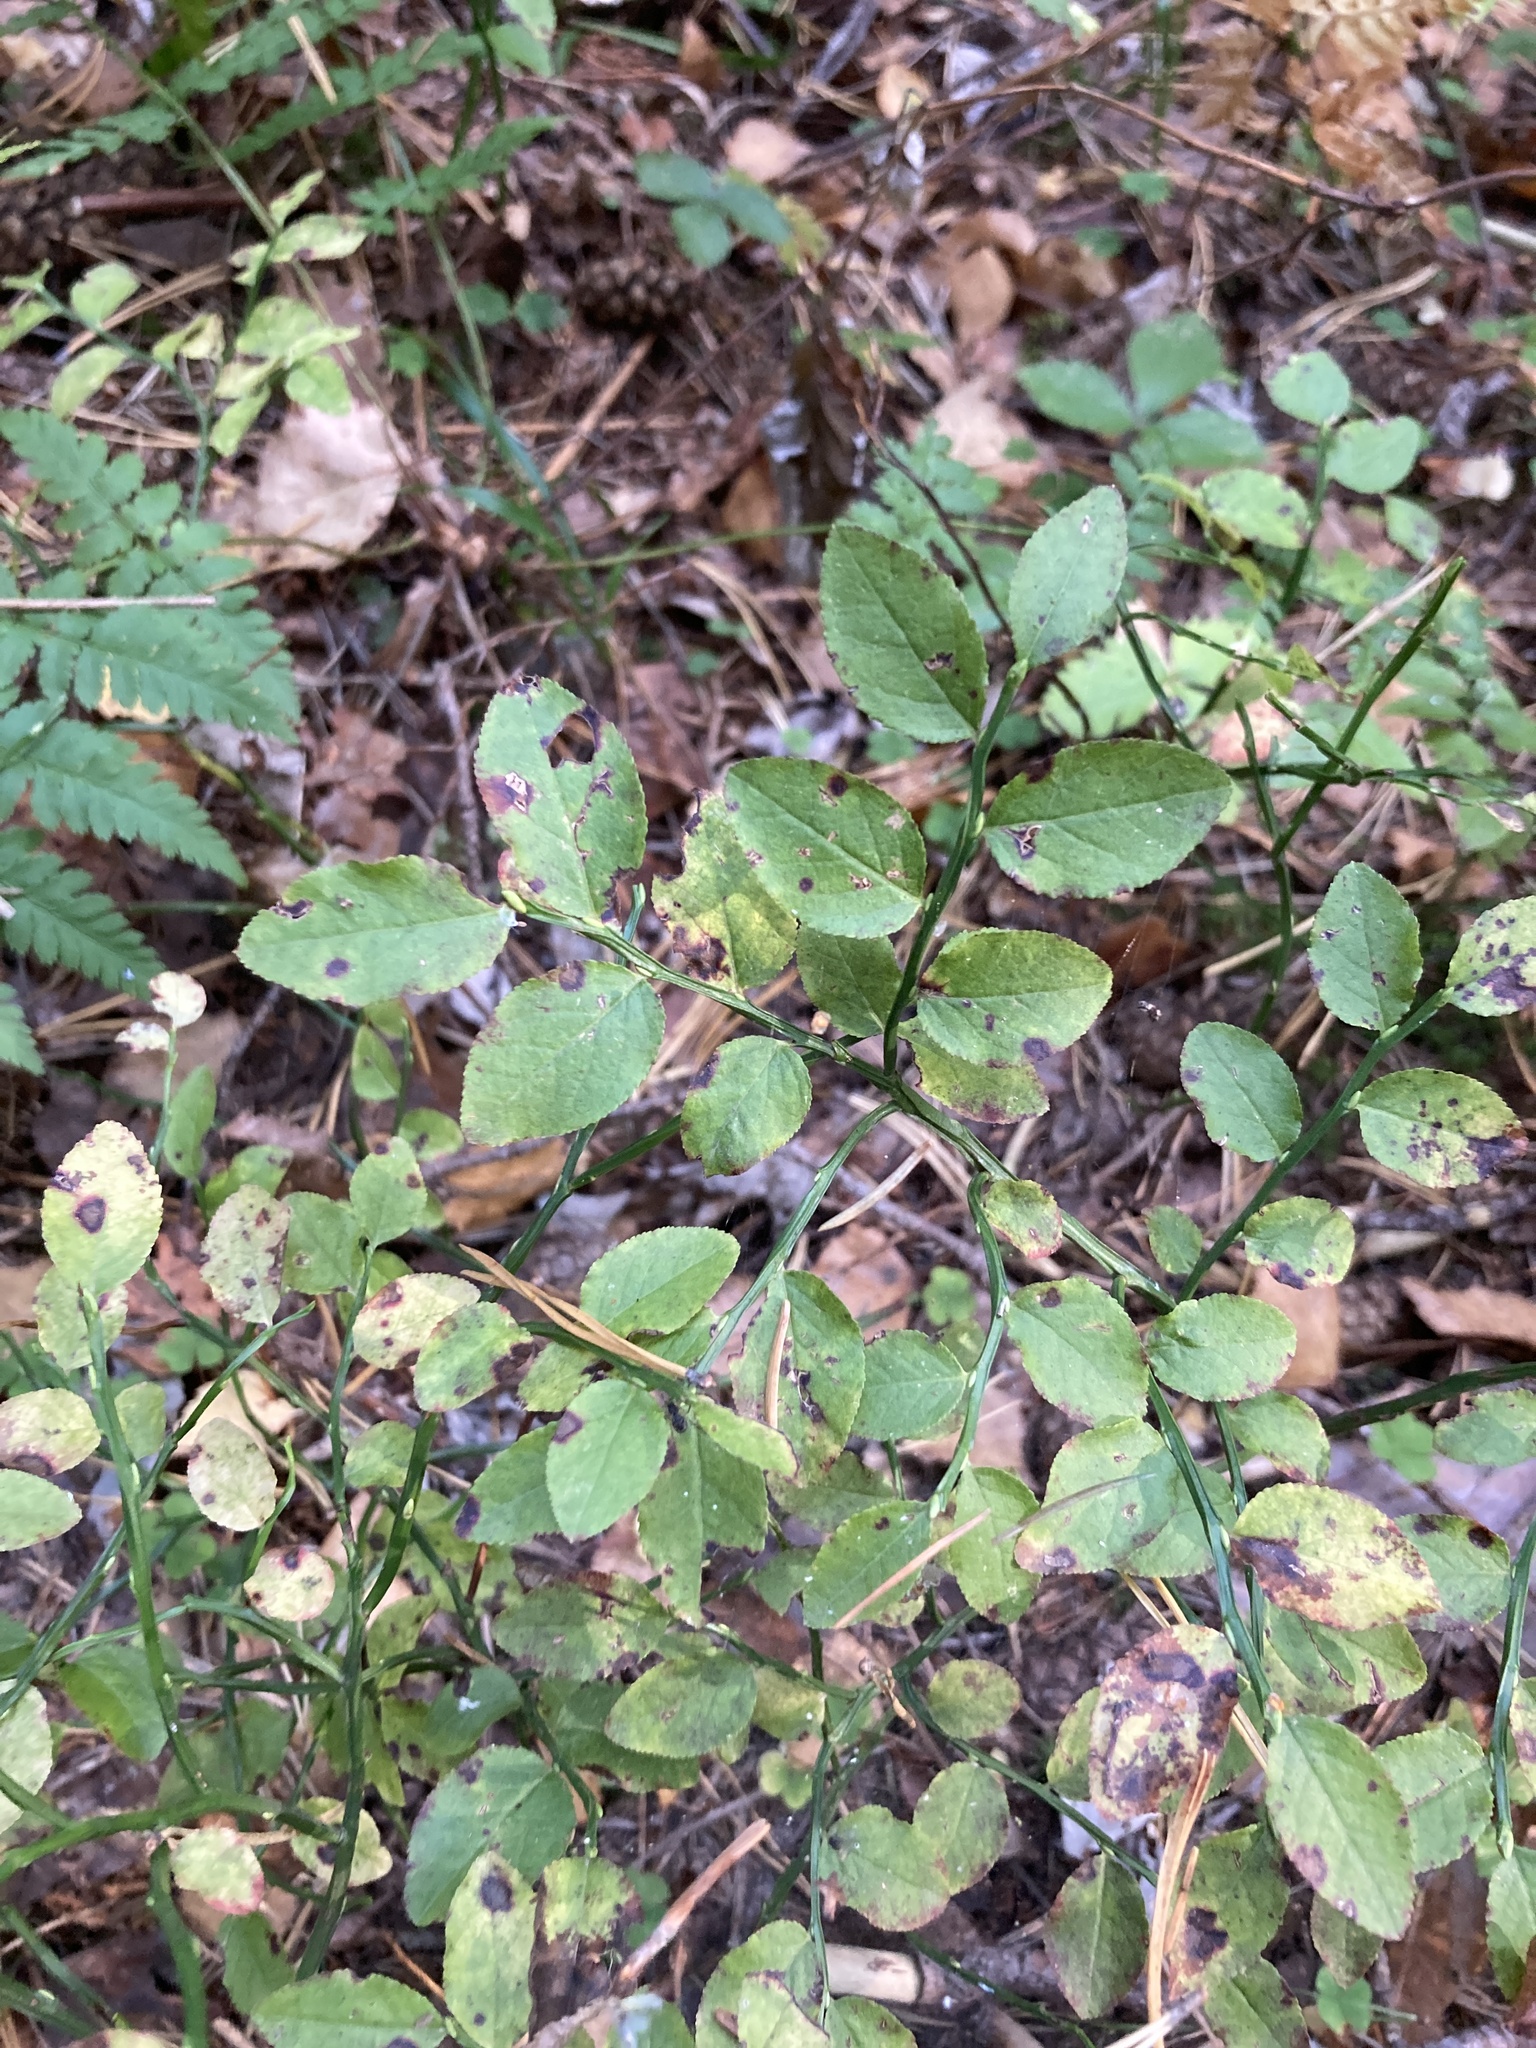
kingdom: Plantae
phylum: Tracheophyta
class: Magnoliopsida
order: Ericales
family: Ericaceae
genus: Vaccinium
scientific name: Vaccinium myrtillus
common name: Bilberry
